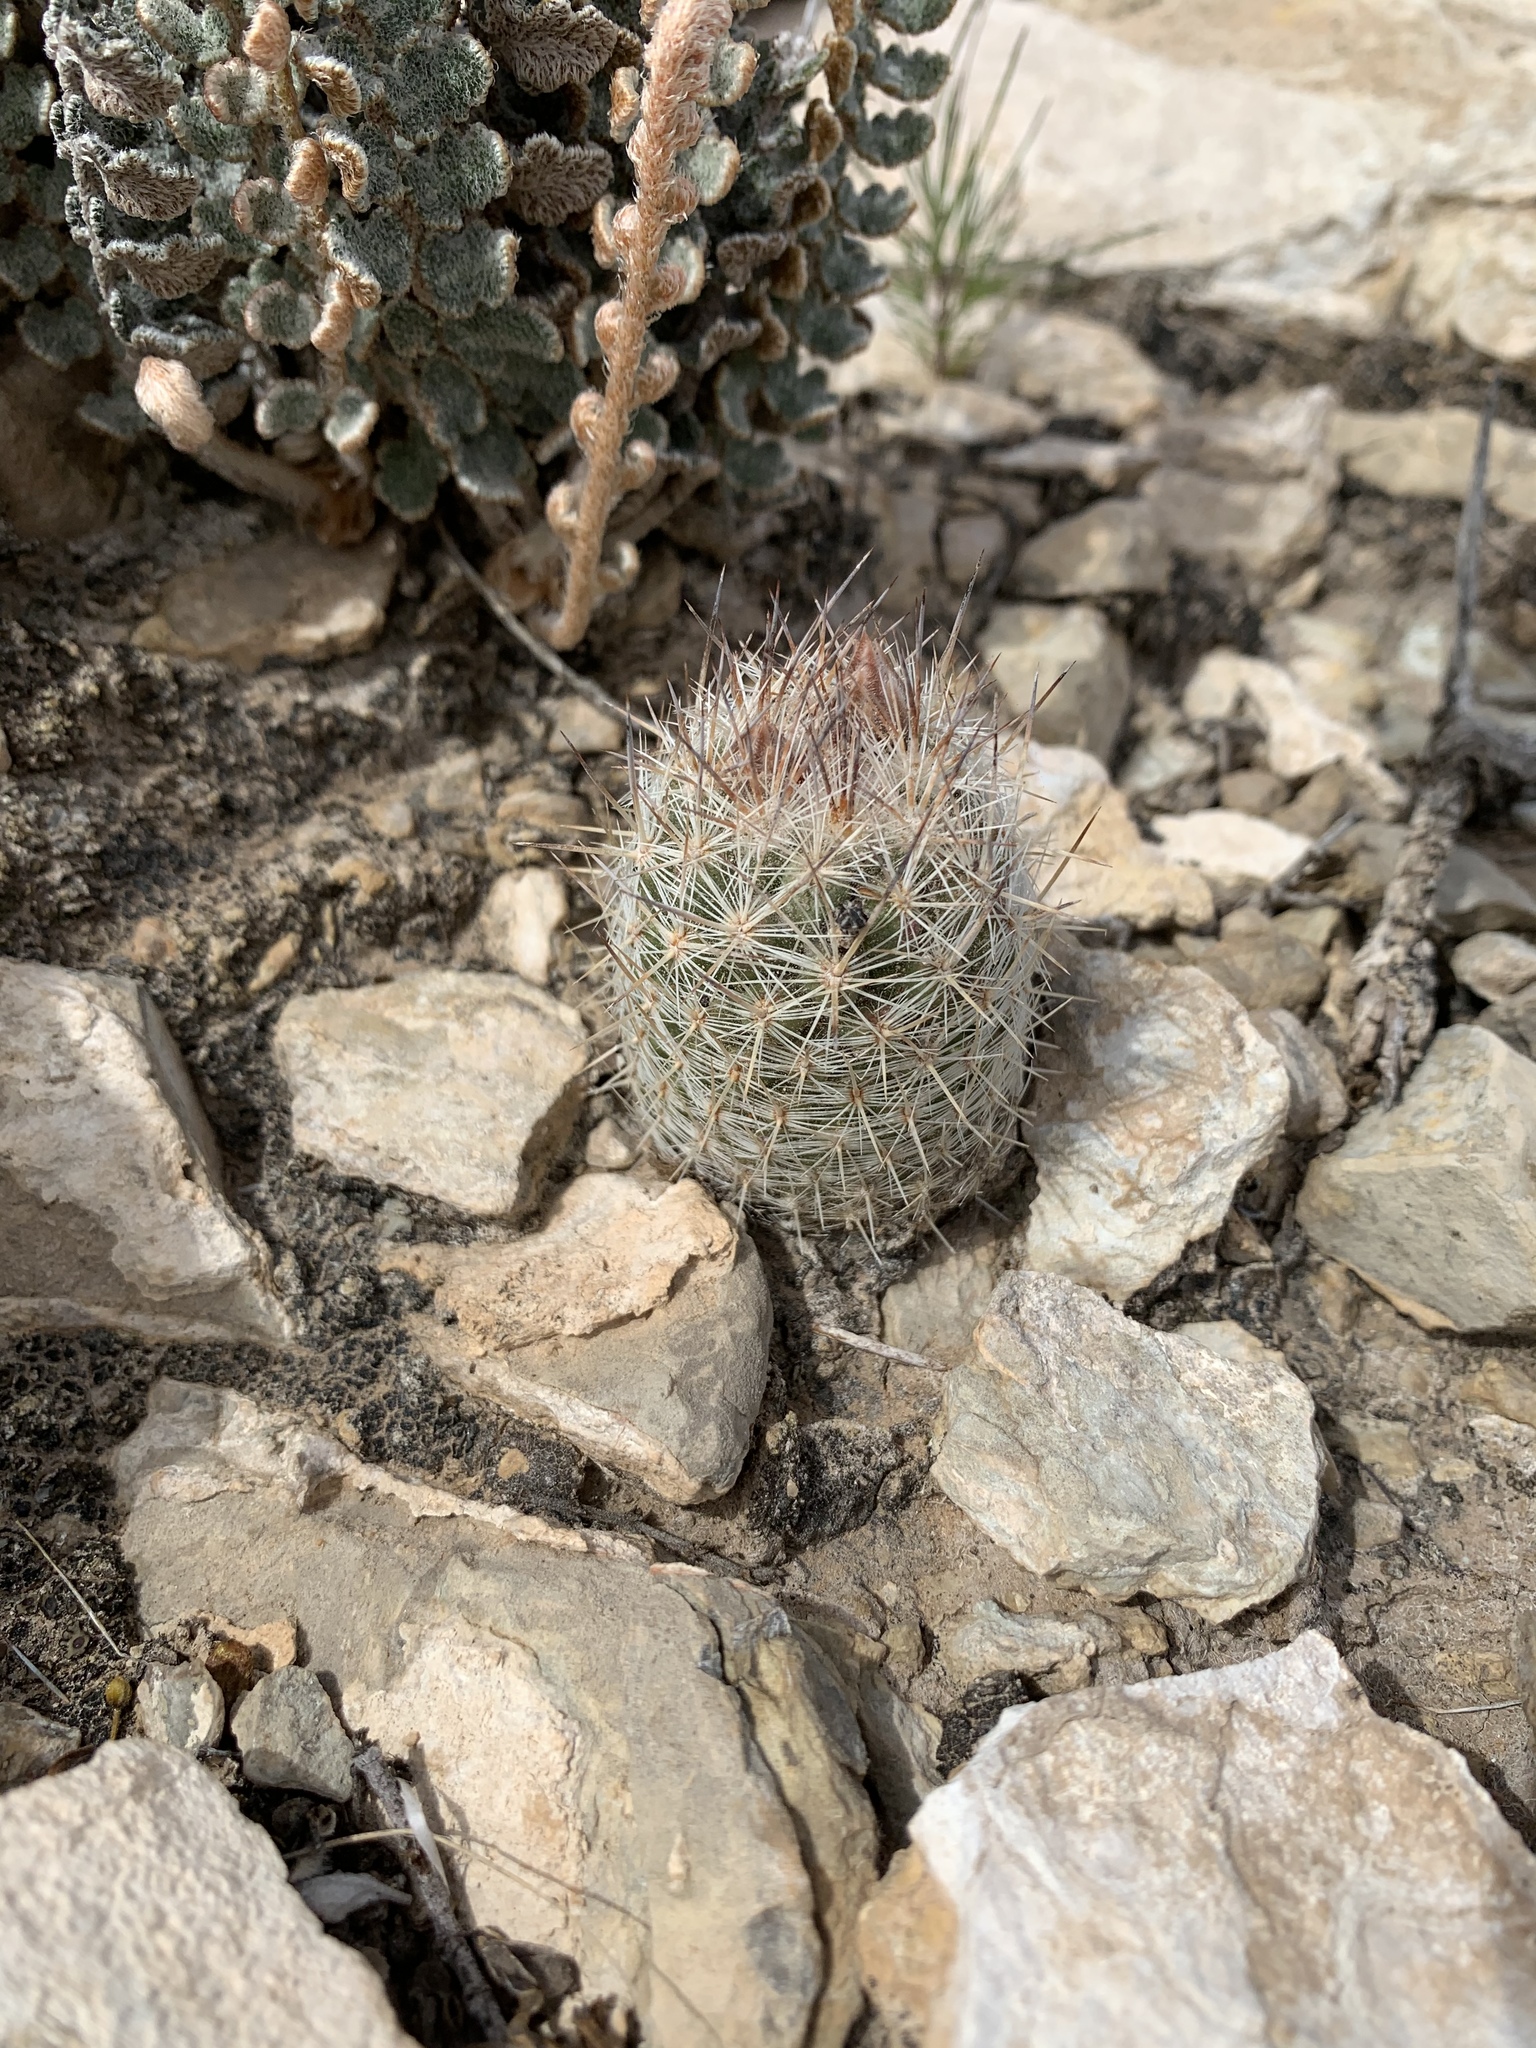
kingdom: Plantae
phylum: Tracheophyta
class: Magnoliopsida
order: Caryophyllales
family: Cactaceae
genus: Pelecyphora
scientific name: Pelecyphora tuberculosa
